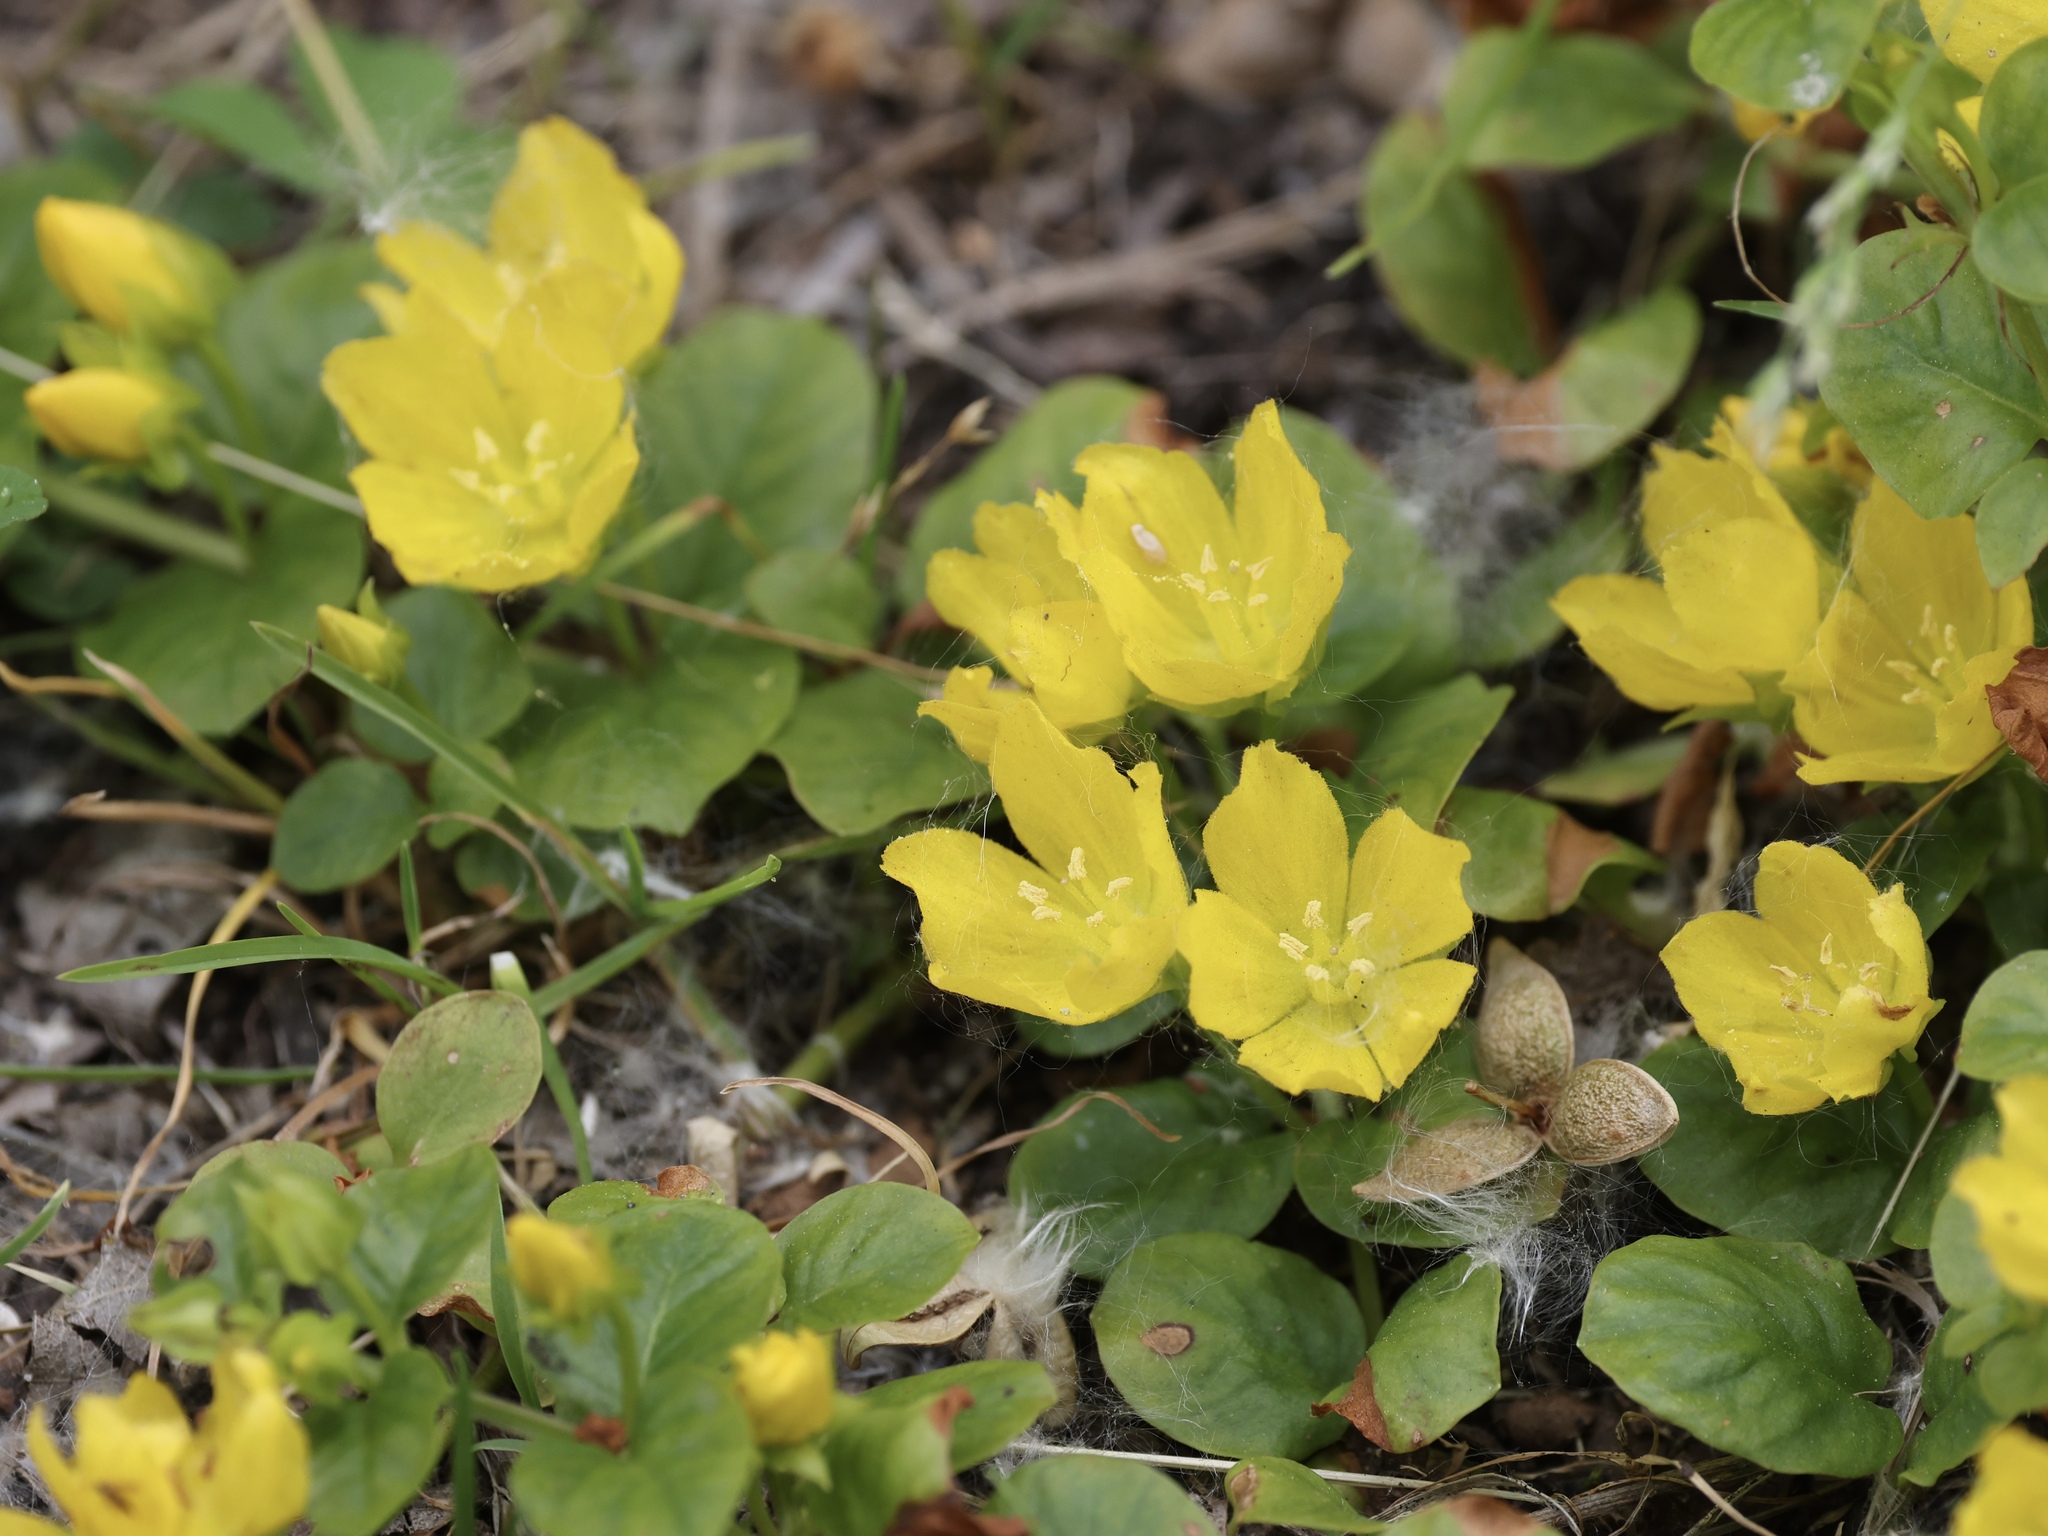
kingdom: Plantae
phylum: Tracheophyta
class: Magnoliopsida
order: Ericales
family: Primulaceae
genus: Lysimachia
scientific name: Lysimachia nummularia
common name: Moneywort
